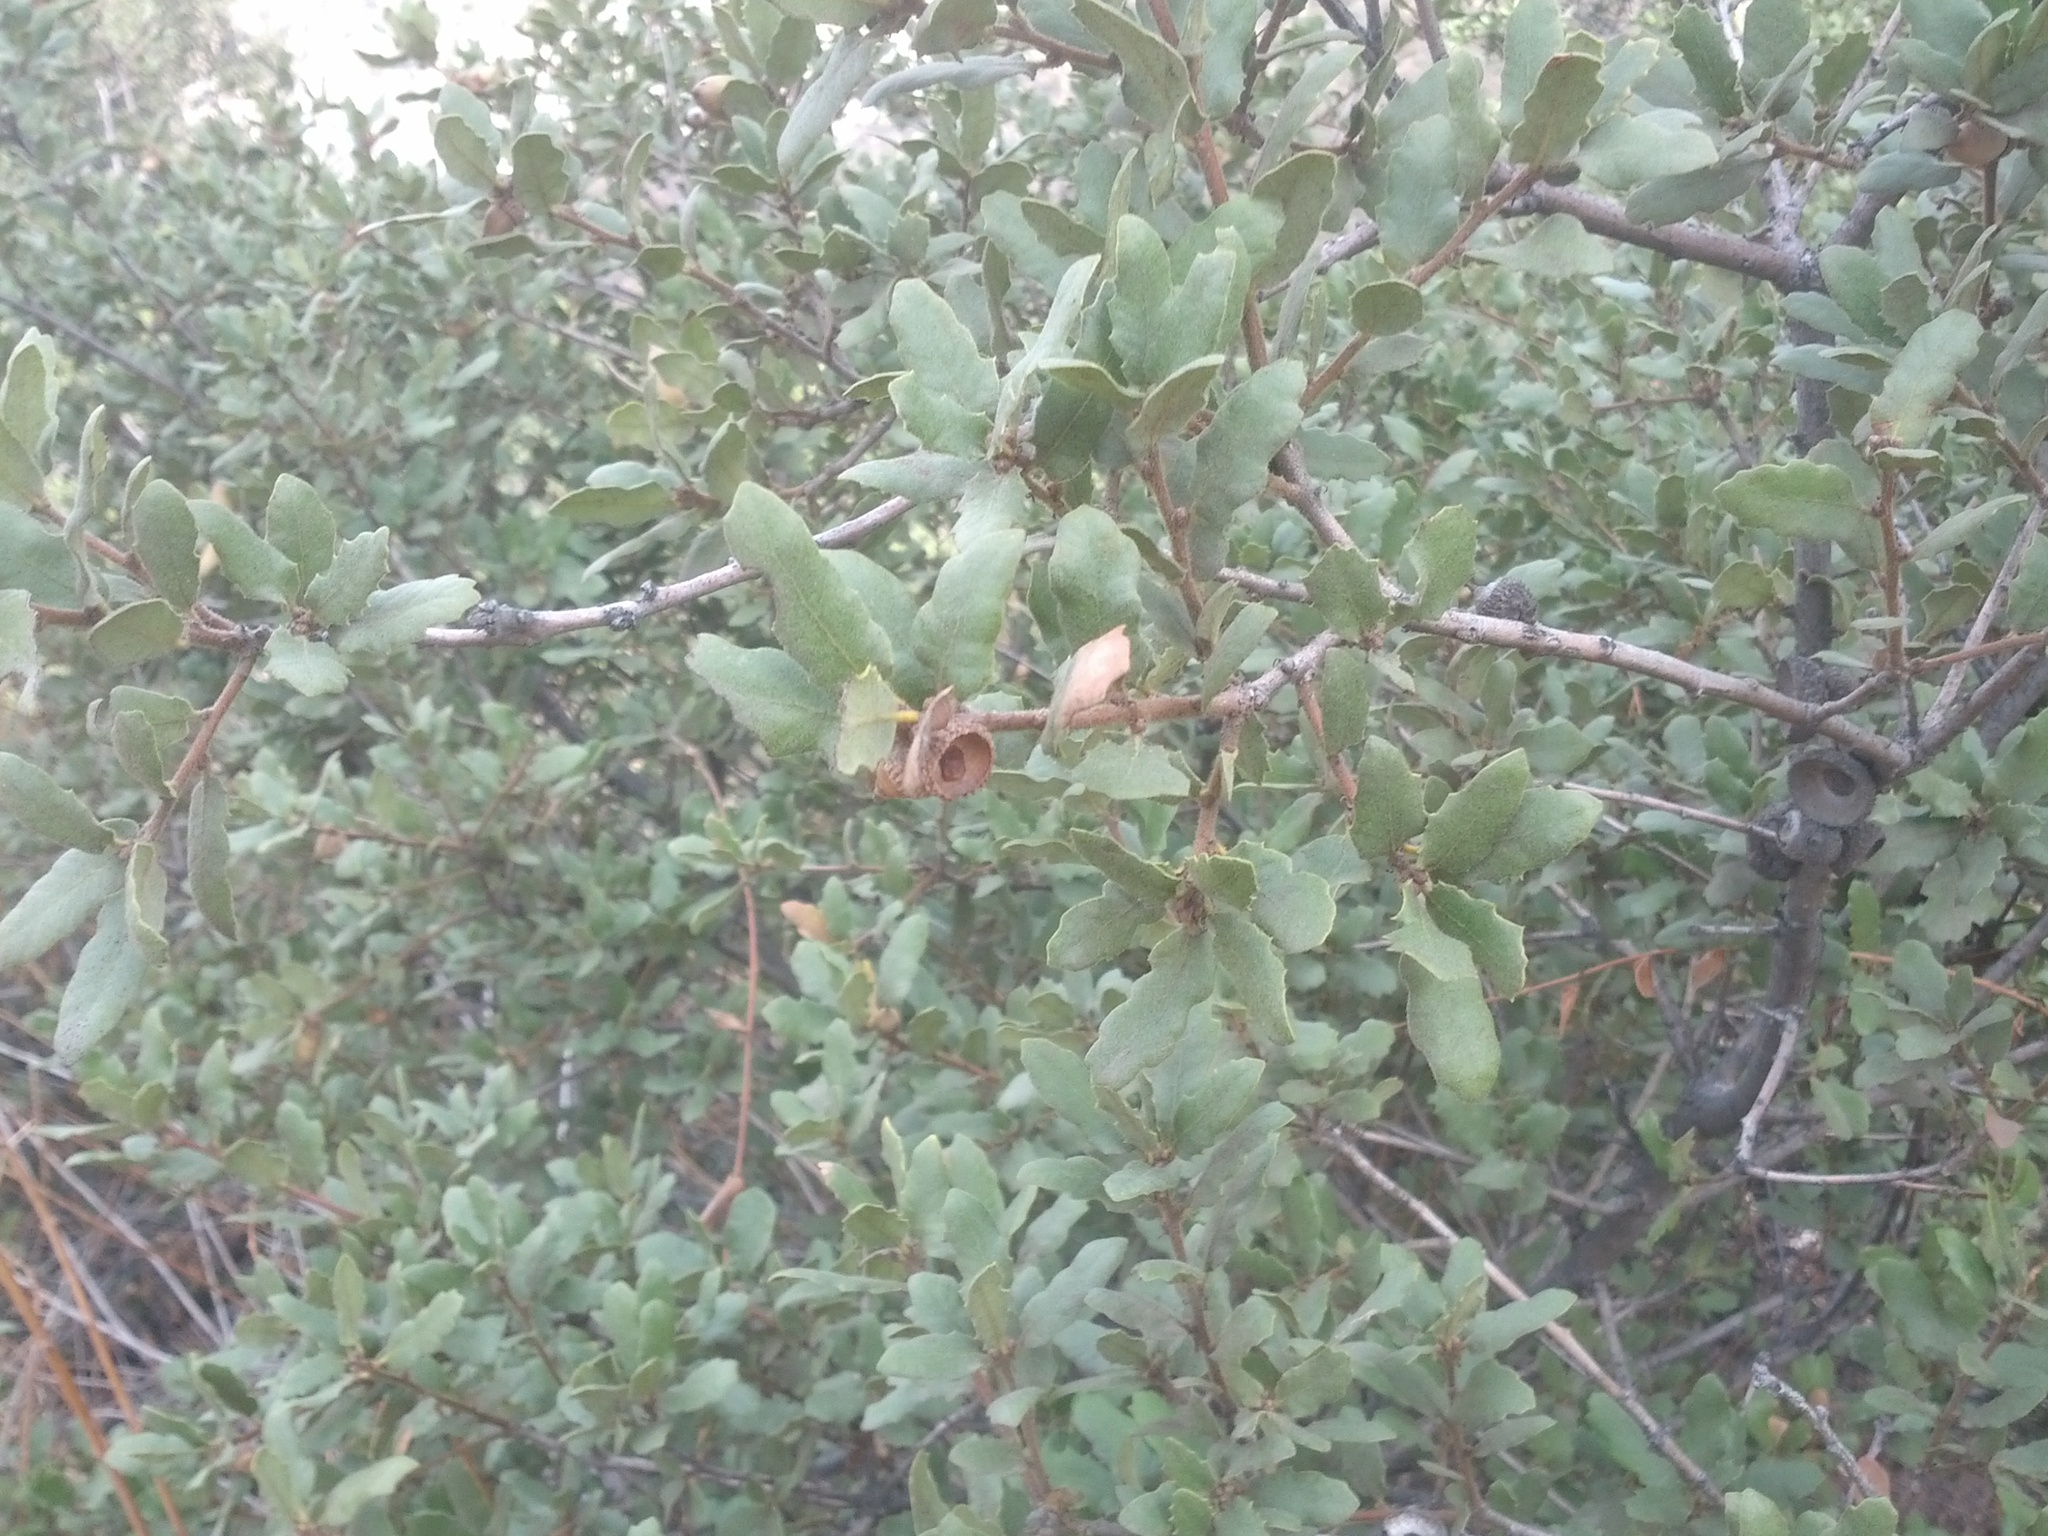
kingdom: Plantae
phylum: Tracheophyta
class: Magnoliopsida
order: Fagales
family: Fagaceae
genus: Quercus
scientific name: Quercus berberidifolia
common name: California scrub oak
